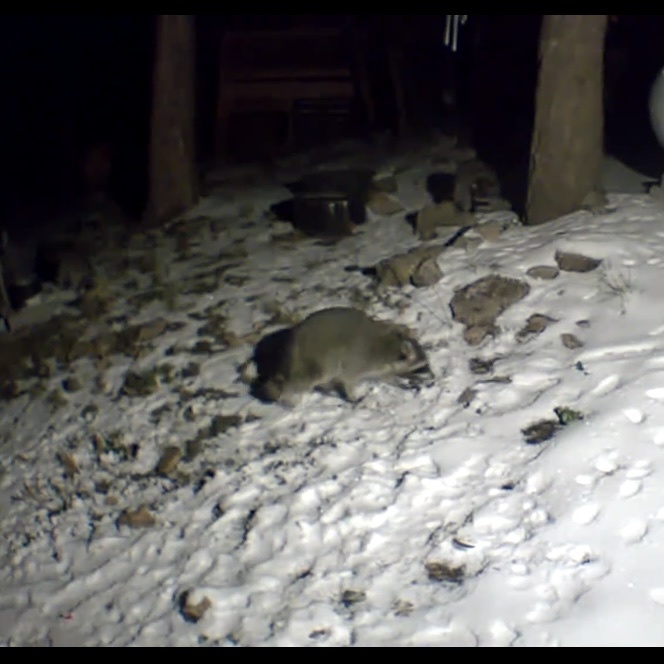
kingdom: Animalia
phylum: Chordata
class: Mammalia
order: Carnivora
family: Procyonidae
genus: Procyon
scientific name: Procyon lotor
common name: Raccoon
